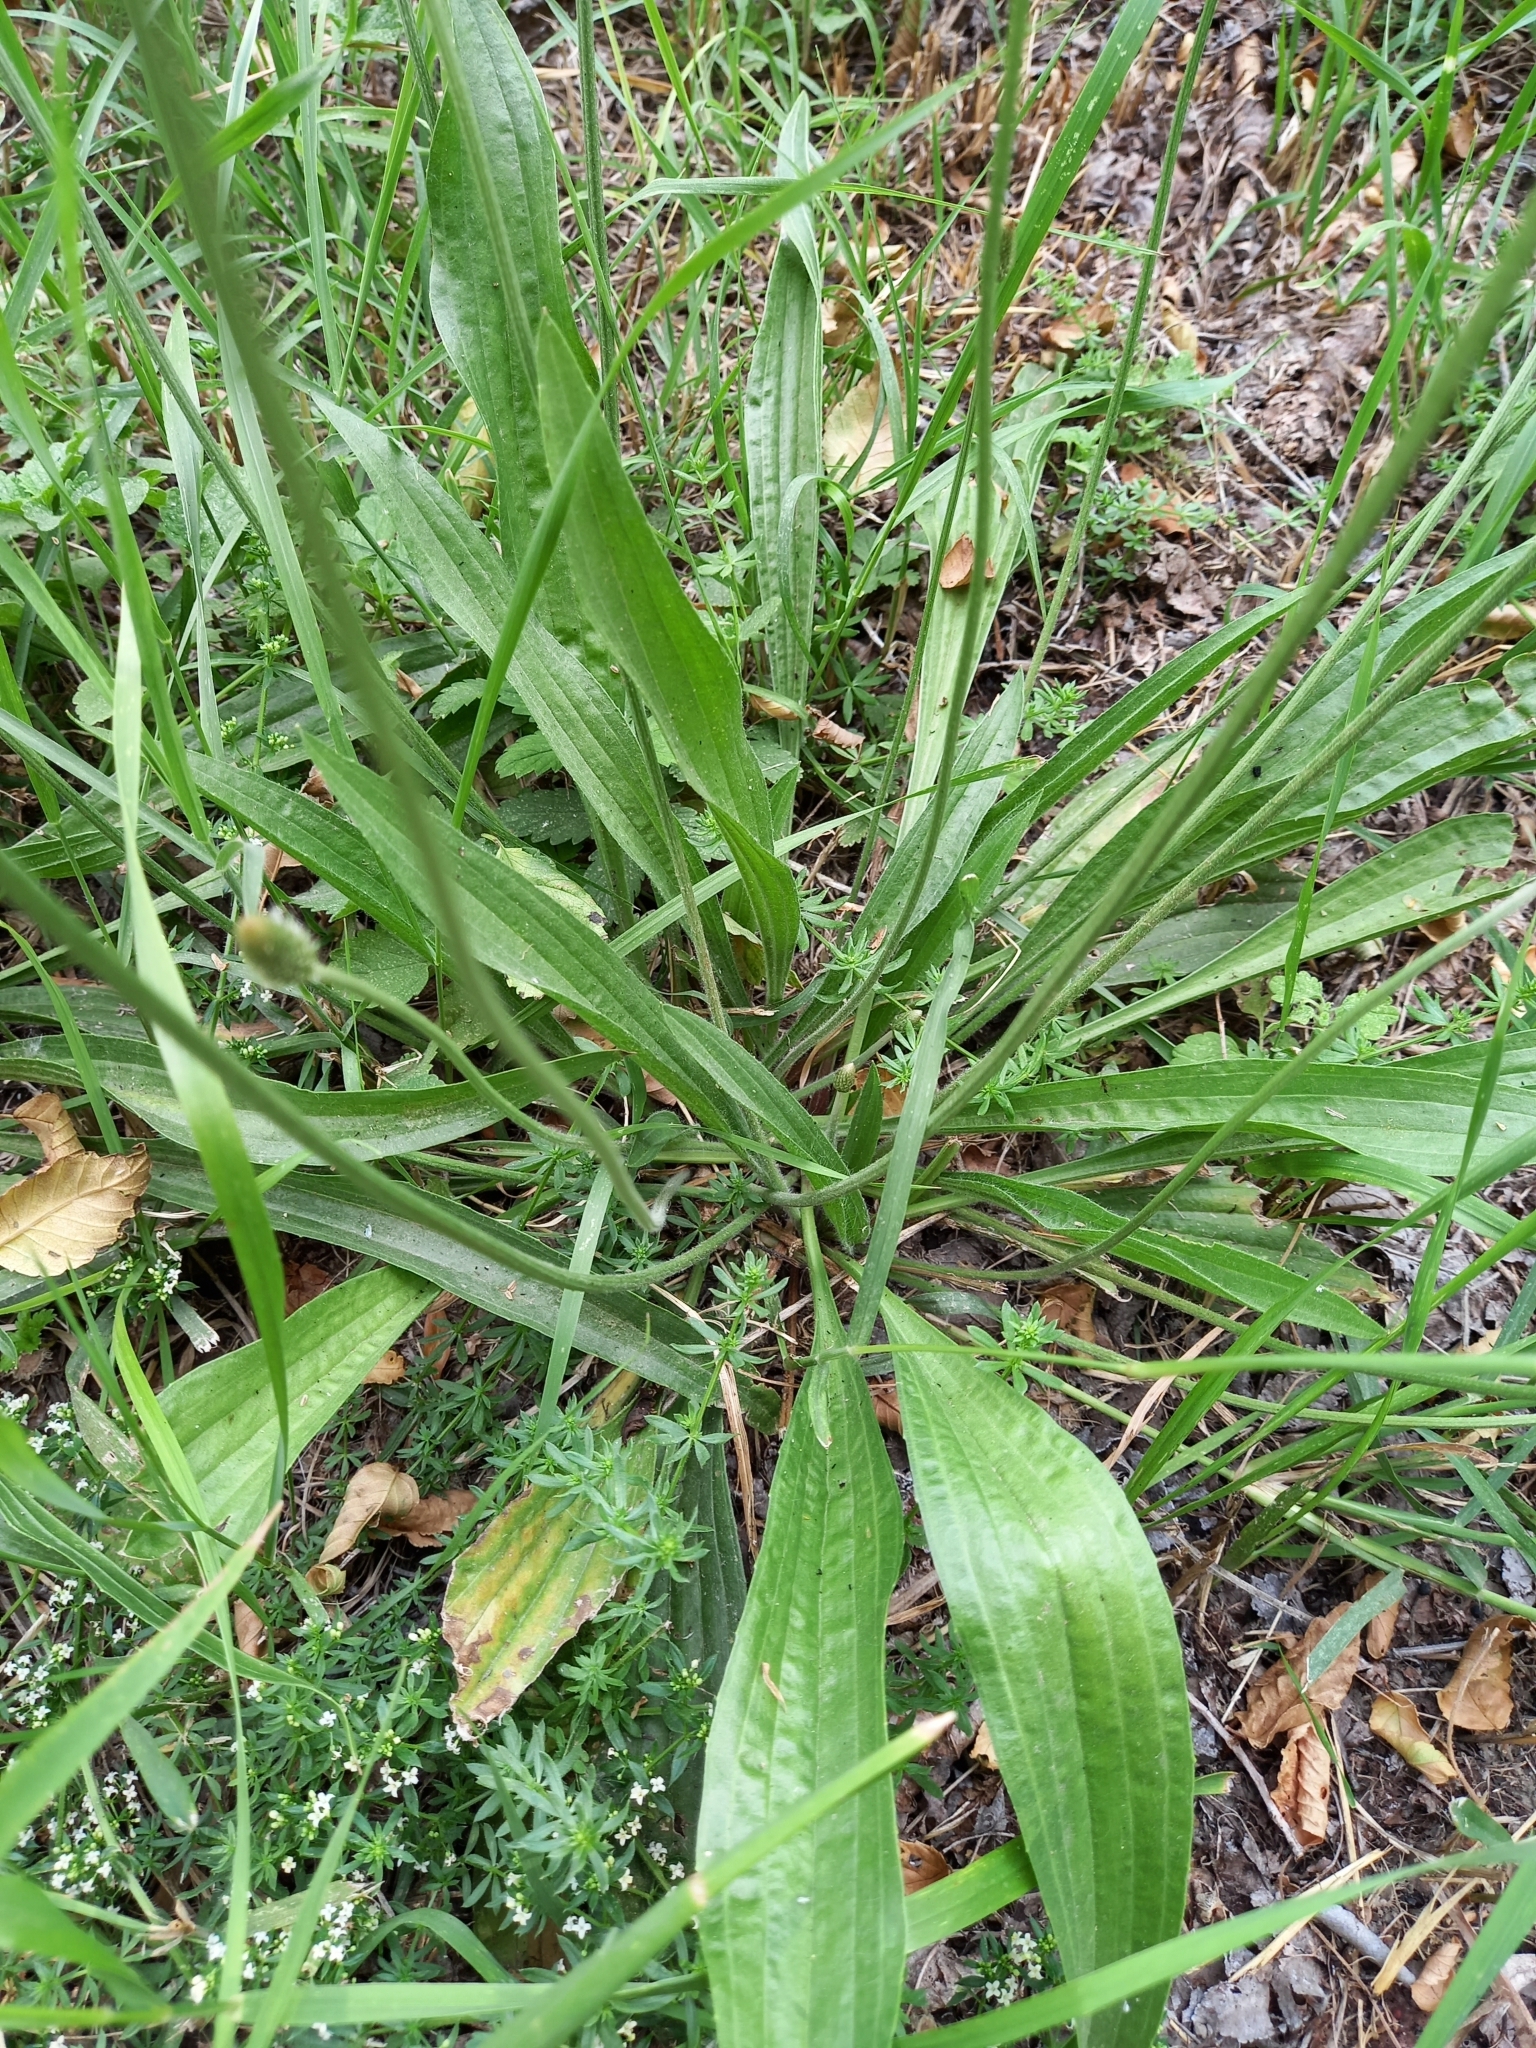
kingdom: Plantae
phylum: Tracheophyta
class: Magnoliopsida
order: Lamiales
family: Plantaginaceae
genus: Plantago
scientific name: Plantago lanceolata
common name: Ribwort plantain
